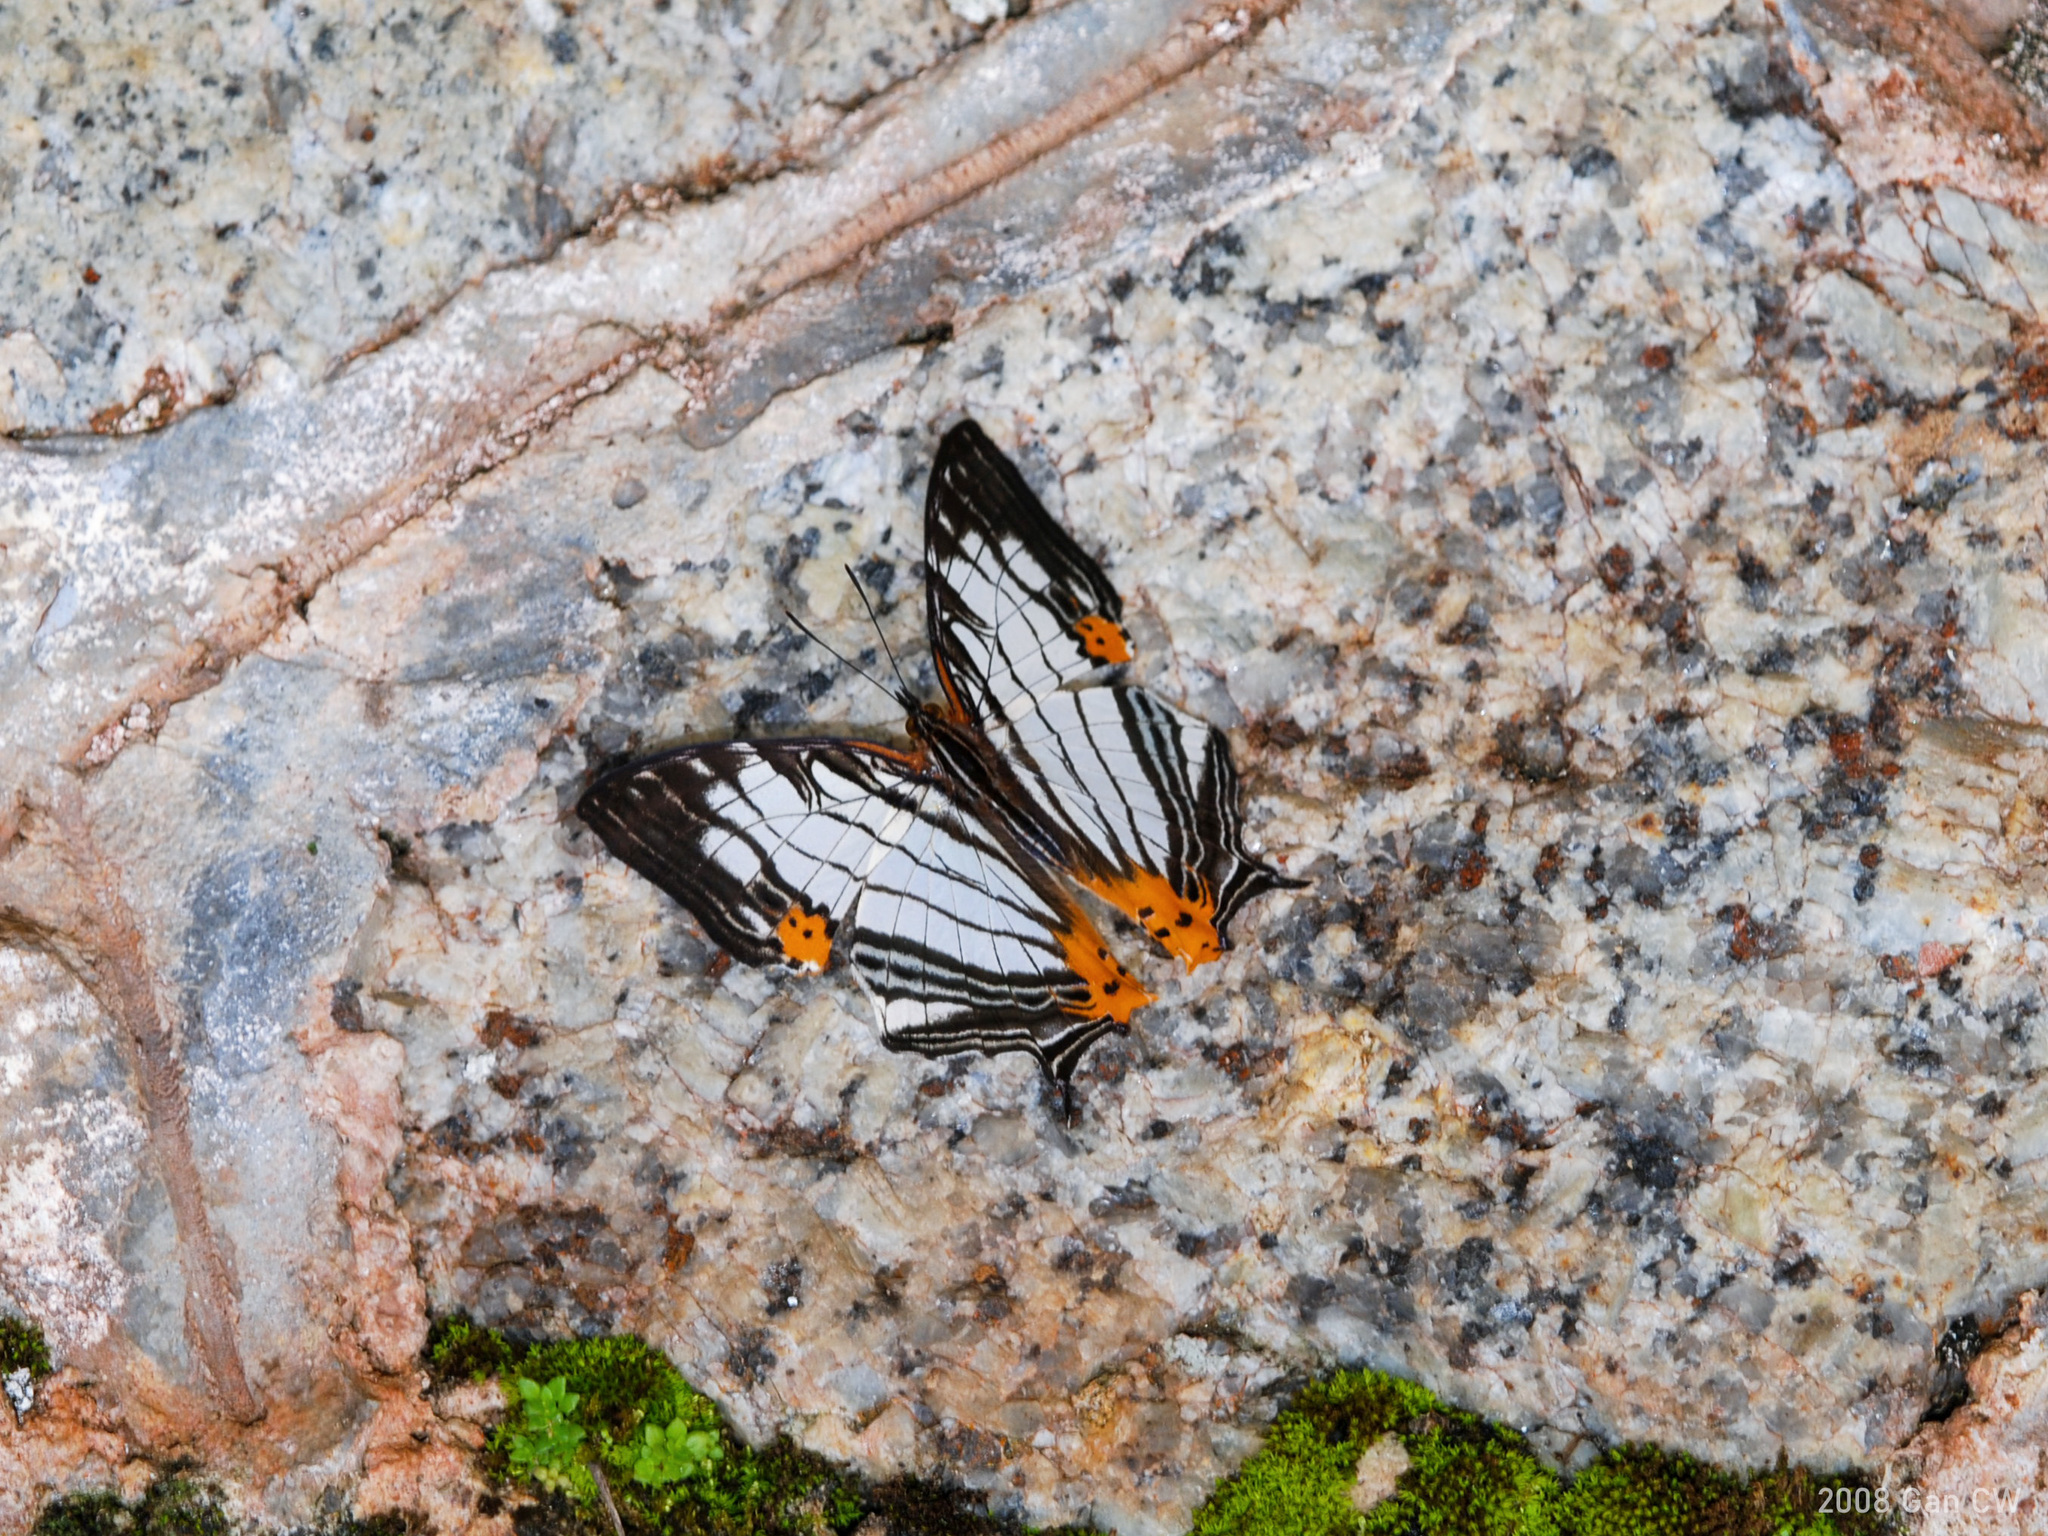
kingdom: Animalia
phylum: Arthropoda
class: Insecta
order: Lepidoptera
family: Nymphalidae
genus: Cyrestis
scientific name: Cyrestis maenalis
